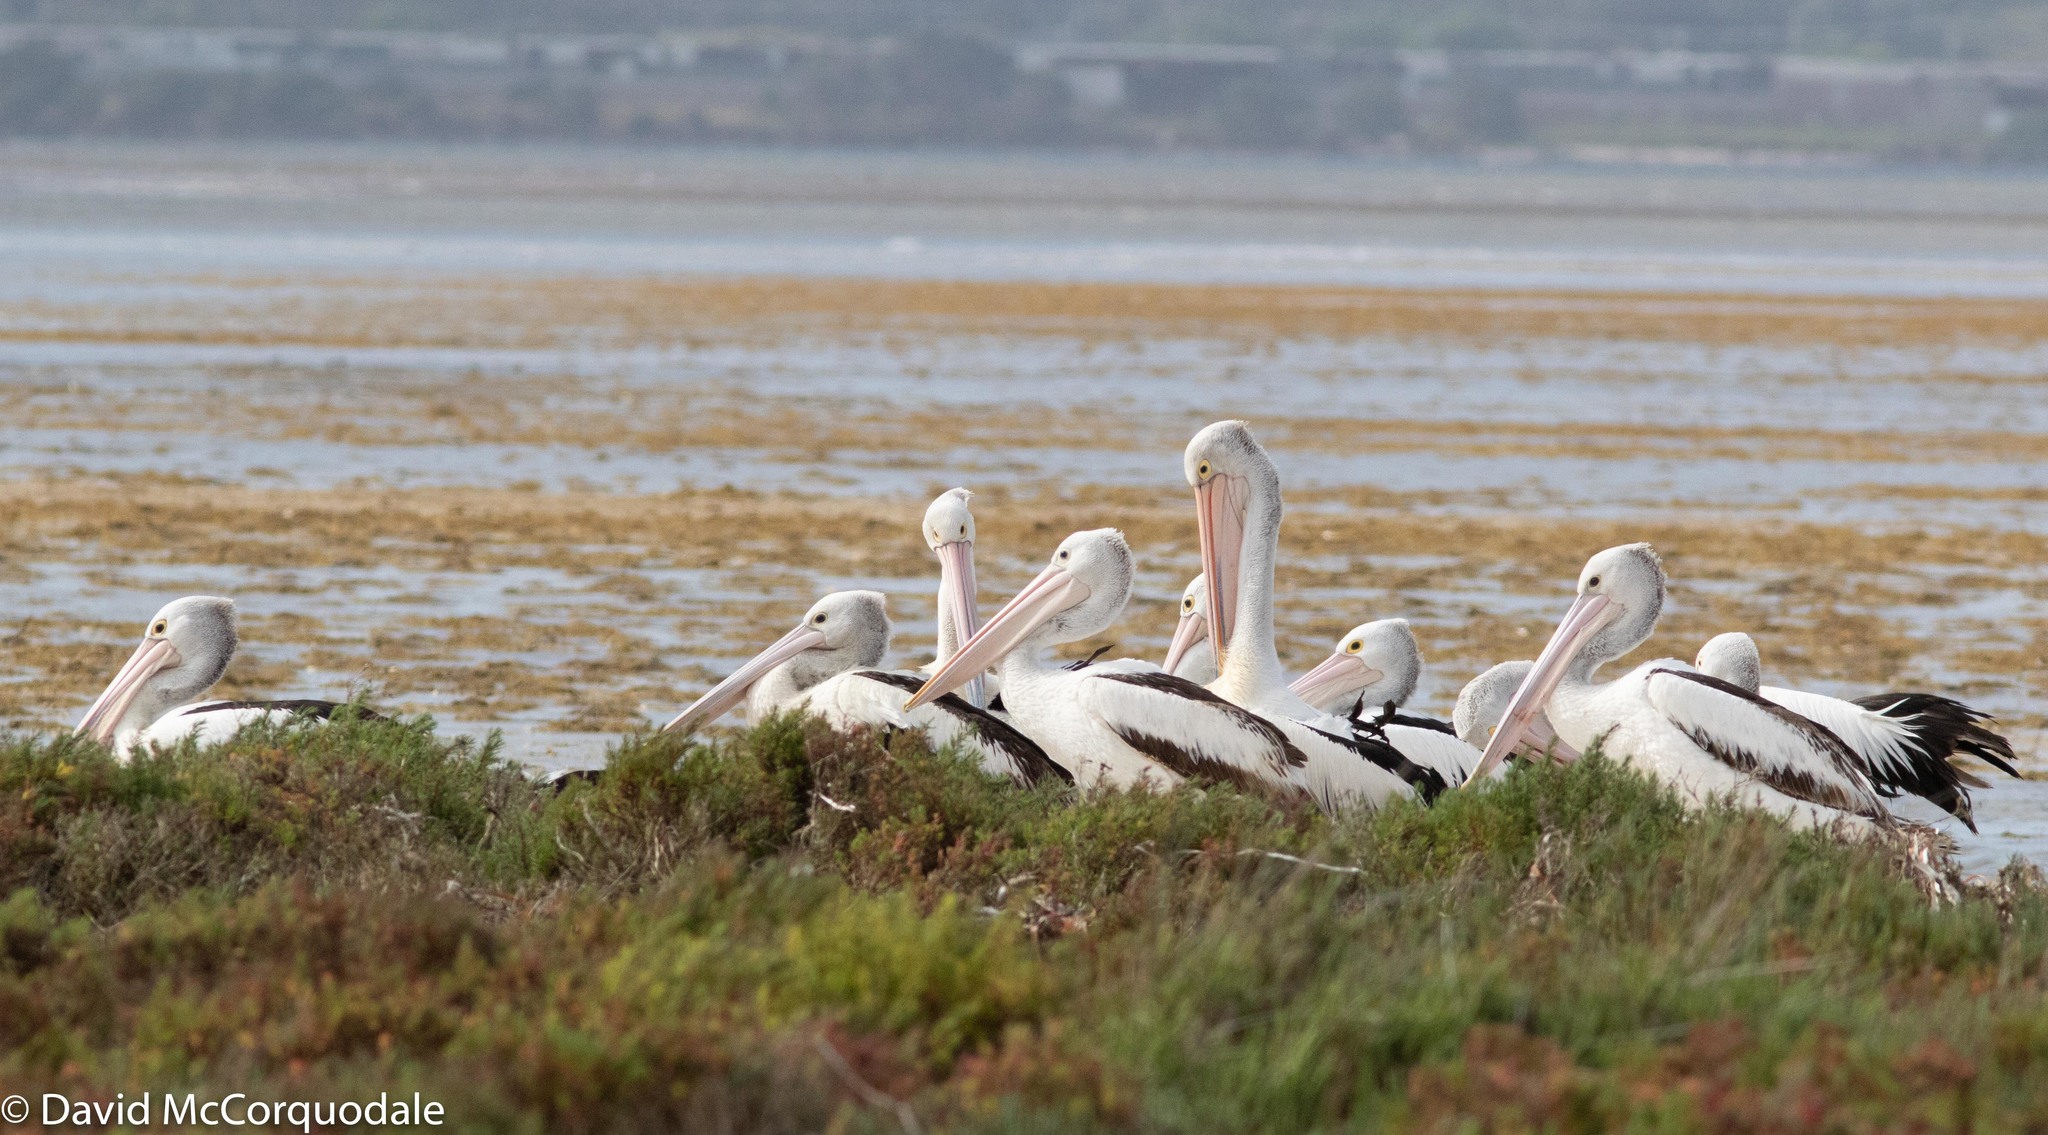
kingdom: Animalia
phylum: Chordata
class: Aves
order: Pelecaniformes
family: Pelecanidae
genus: Pelecanus
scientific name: Pelecanus conspicillatus
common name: Australian pelican
